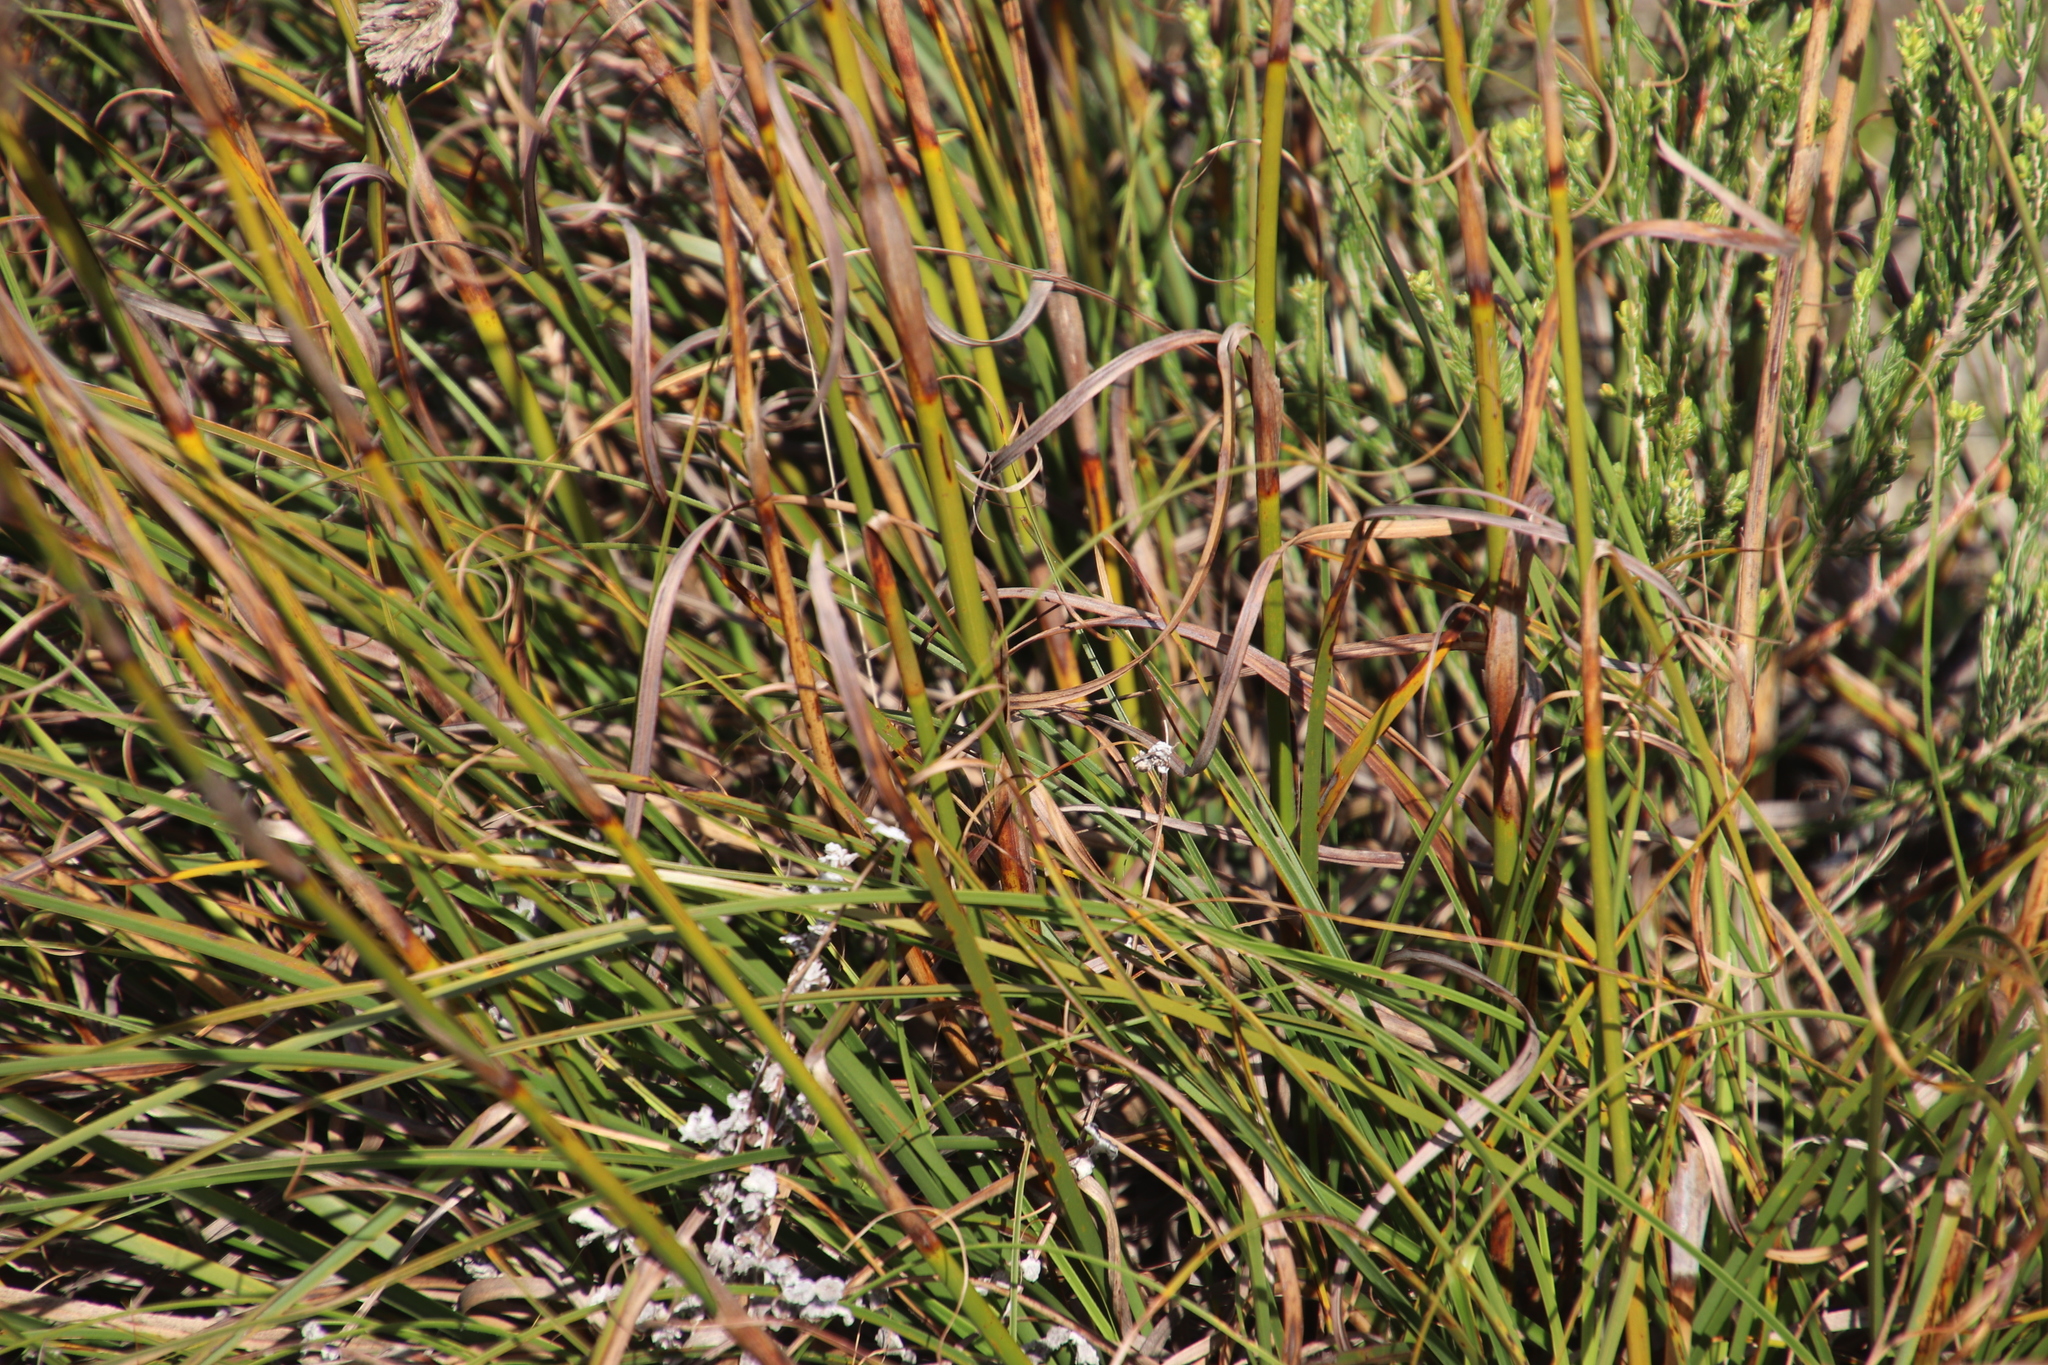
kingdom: Plantae
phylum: Tracheophyta
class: Liliopsida
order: Poales
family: Cyperaceae
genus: Tetraria
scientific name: Tetraria bromoides
